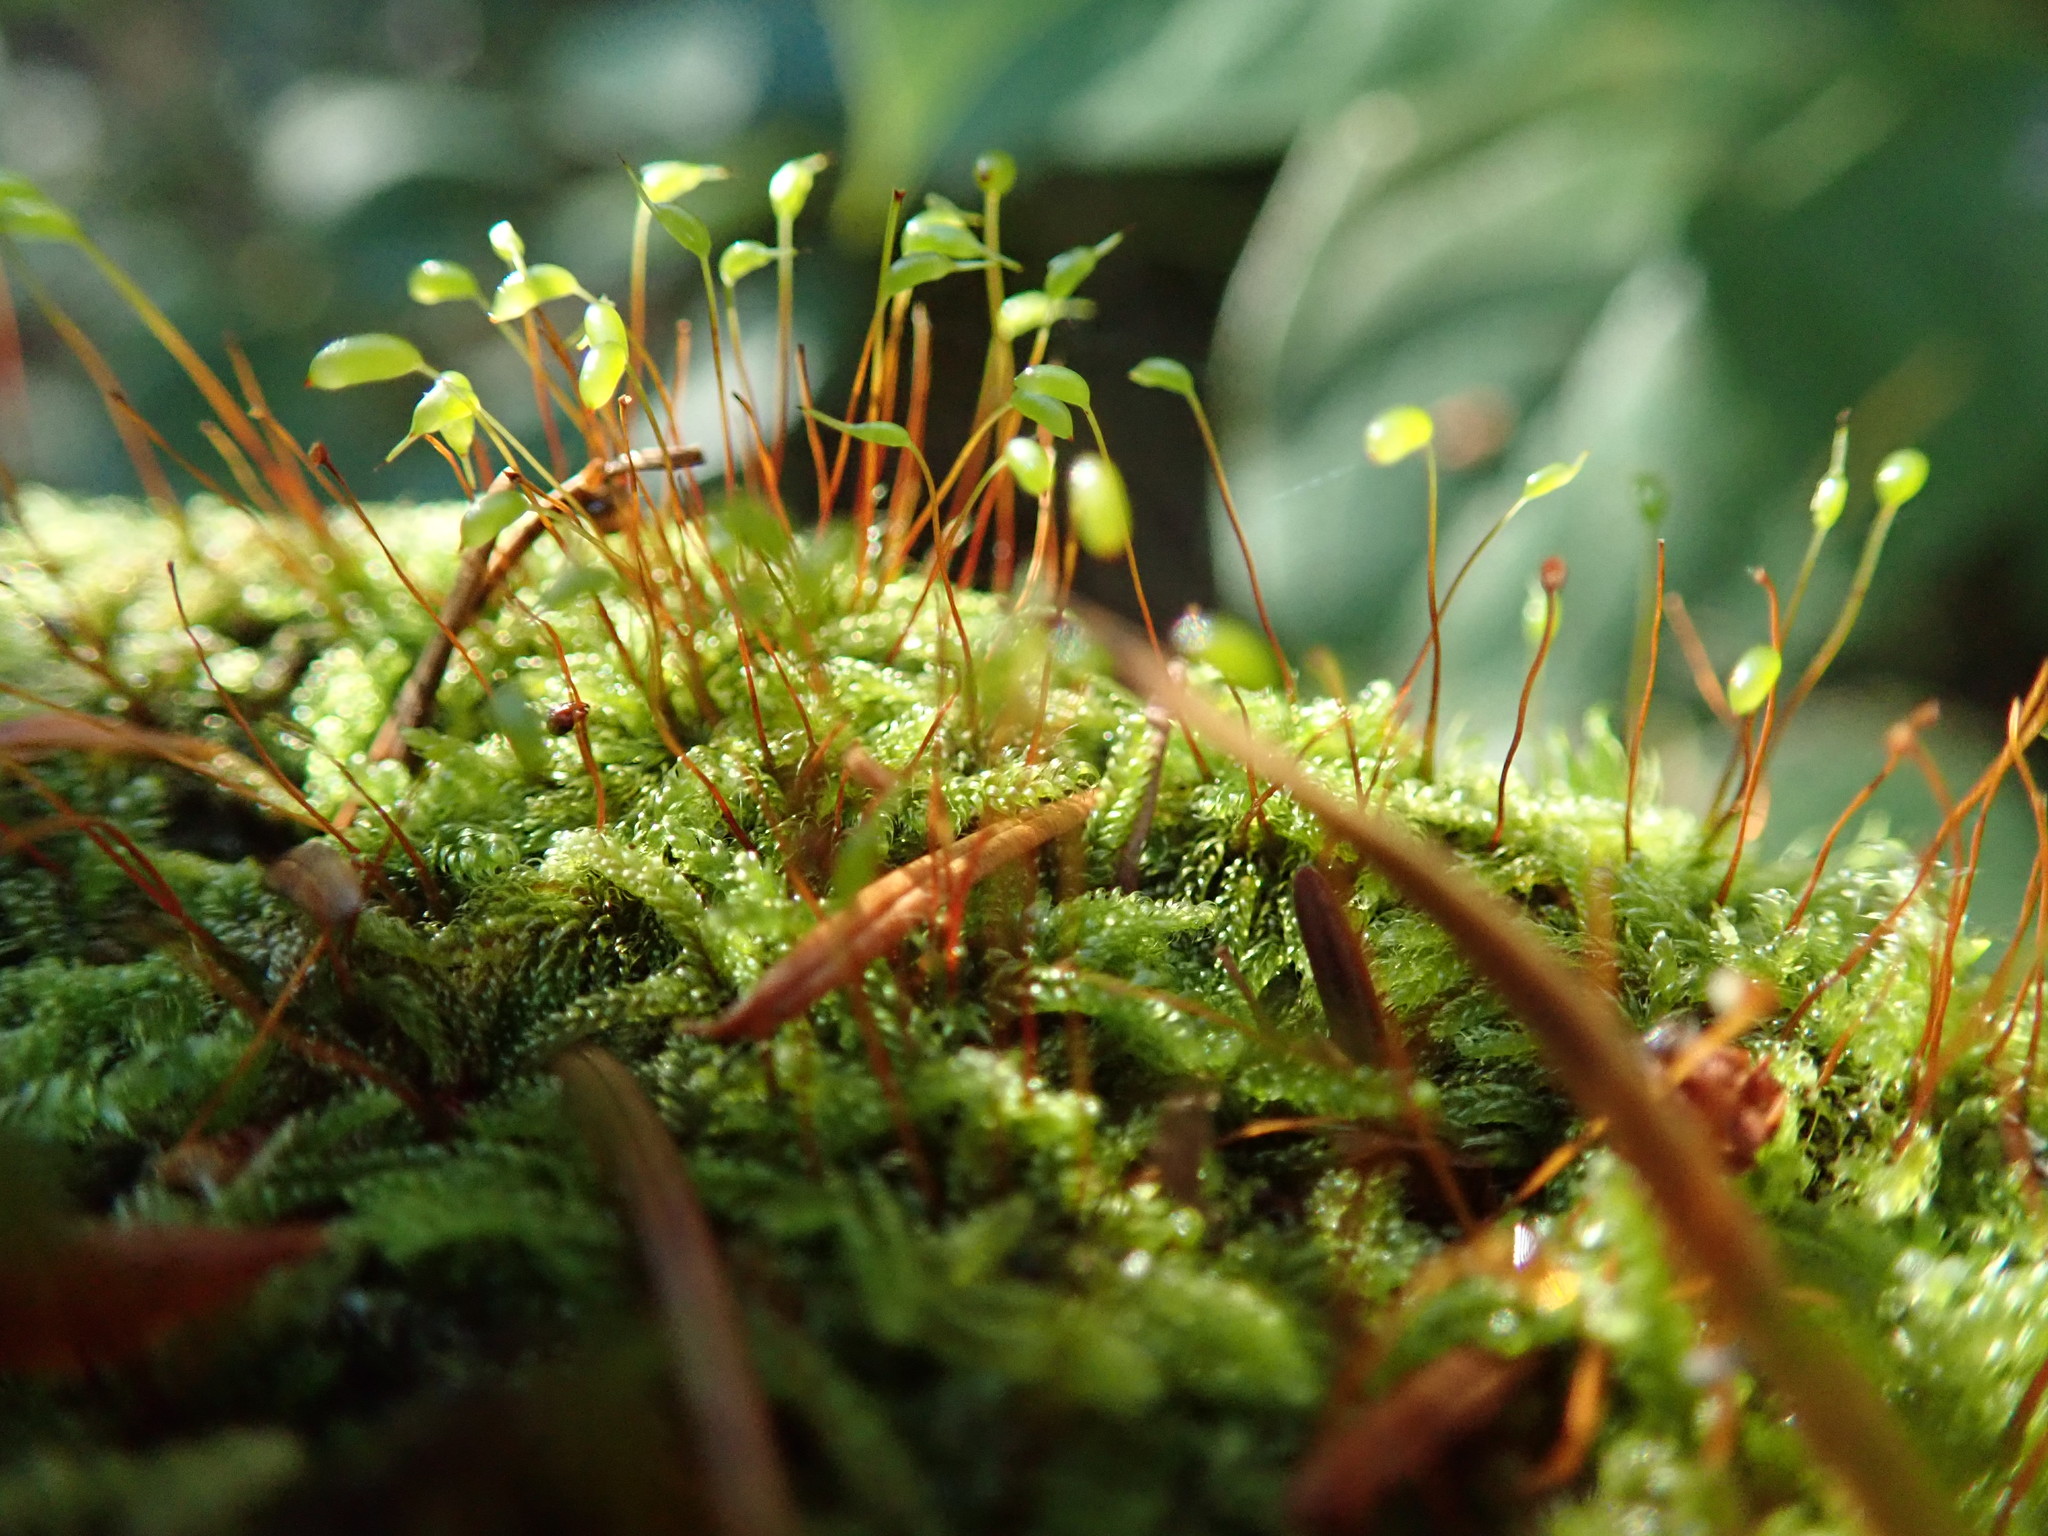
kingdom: Plantae
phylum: Bryophyta
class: Bryopsida
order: Hypnales
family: Pylaisiadelphaceae
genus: Trochophyllohypnum
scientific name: Trochophyllohypnum circinale
